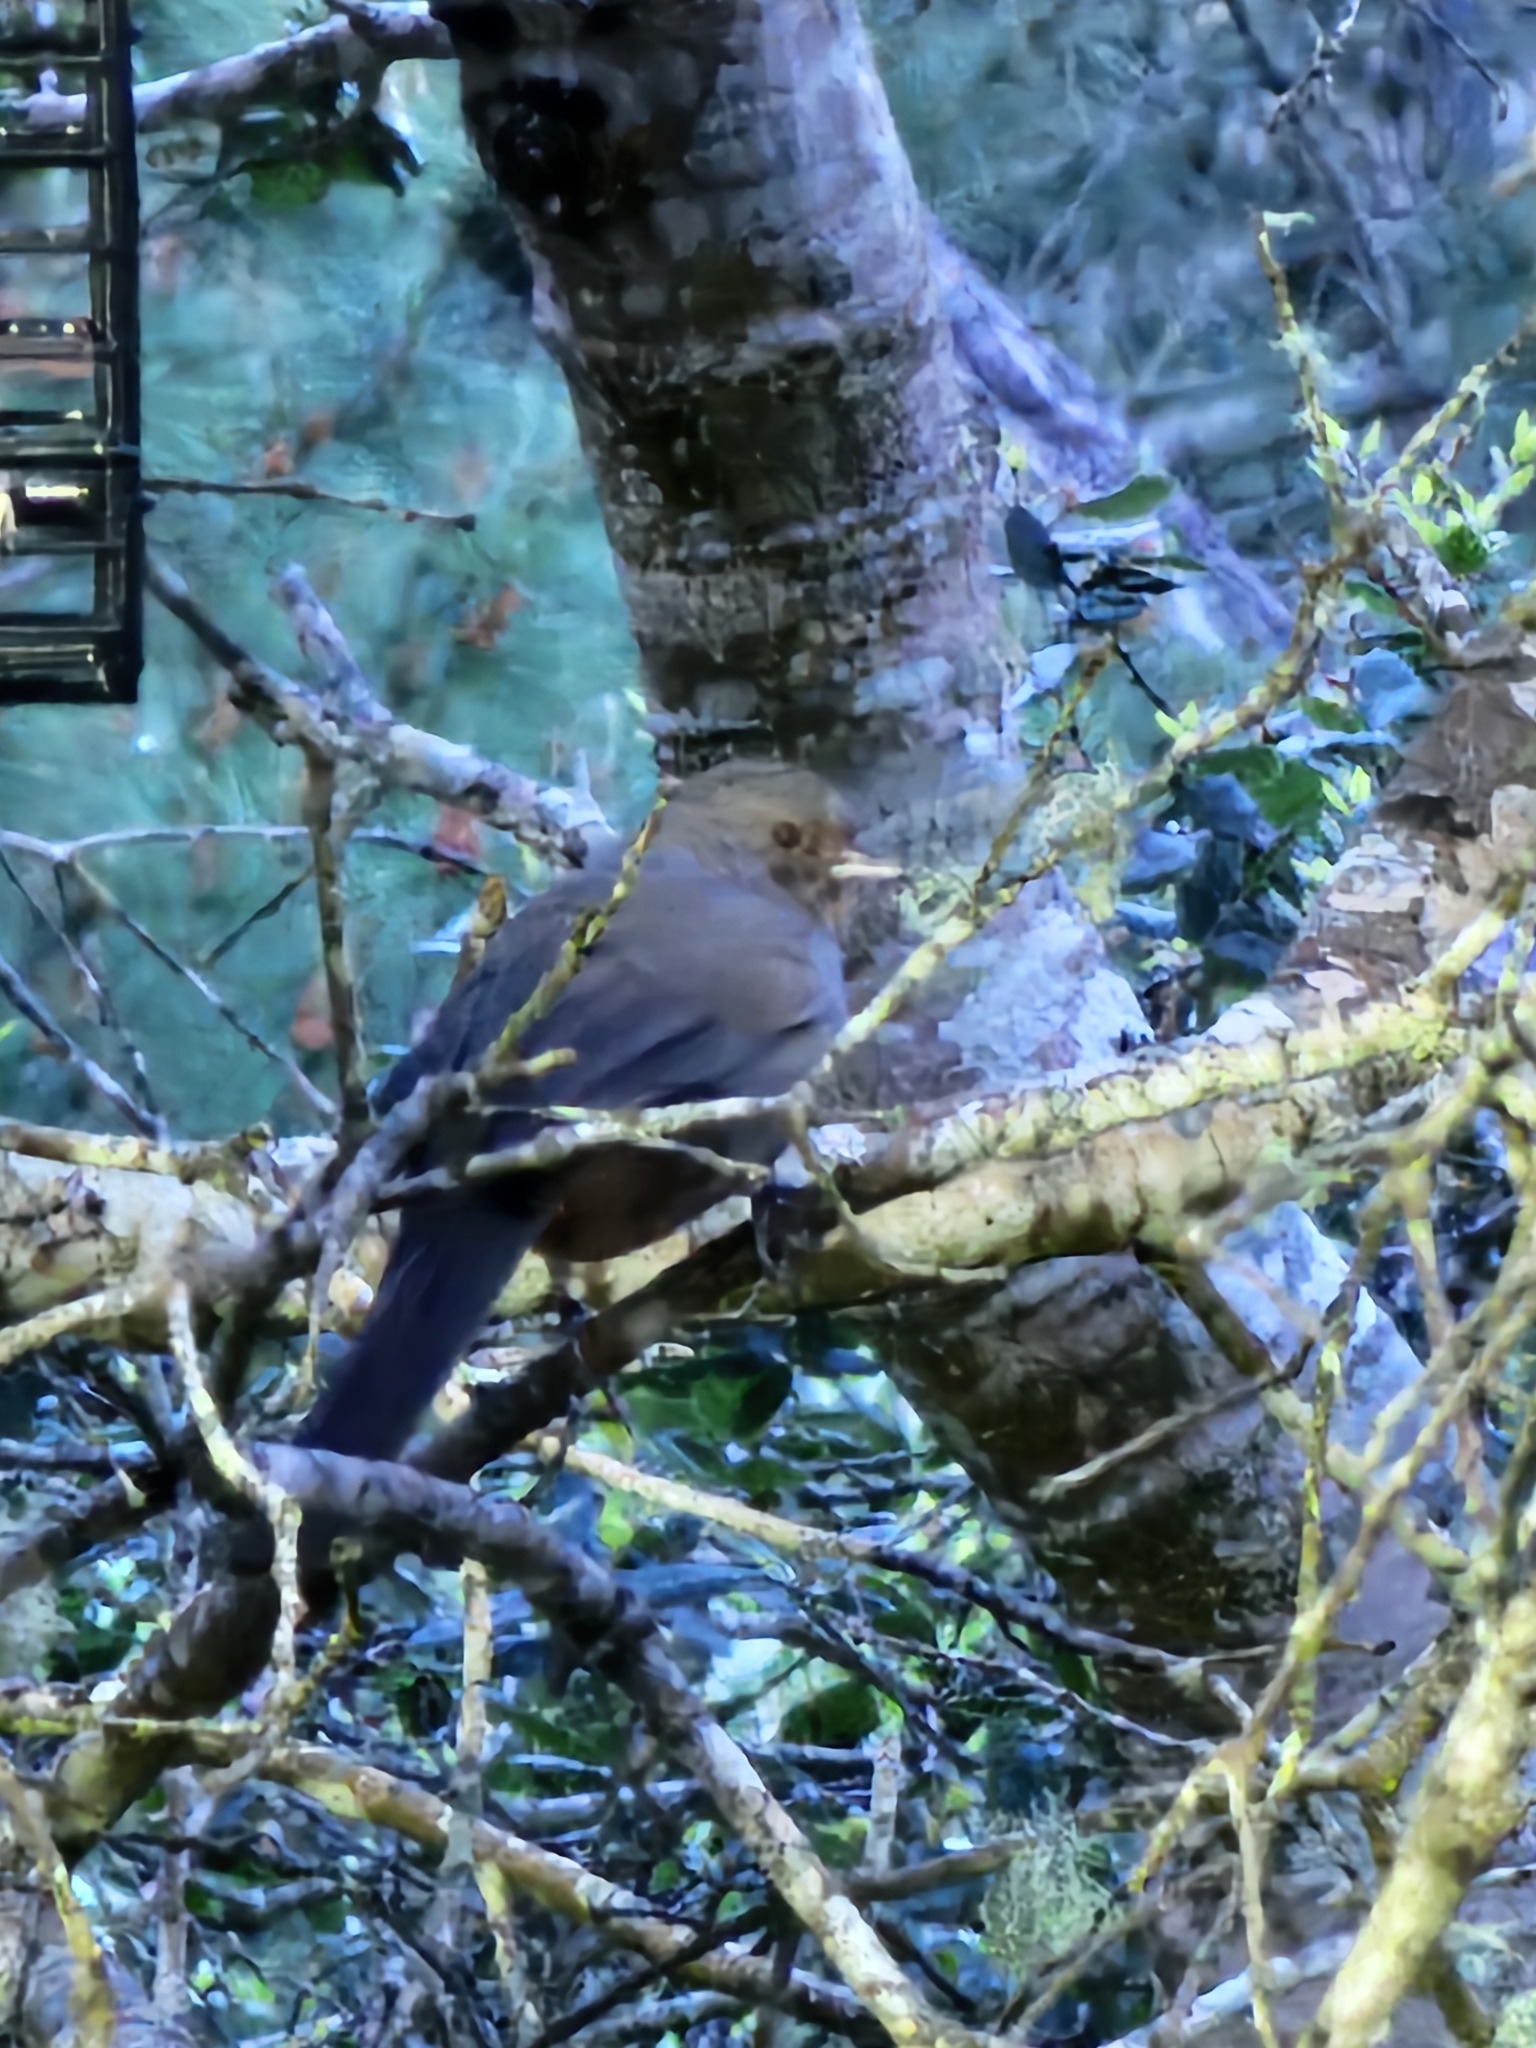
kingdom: Animalia
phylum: Chordata
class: Aves
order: Passeriformes
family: Passerellidae
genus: Melozone
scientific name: Melozone crissalis
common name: California towhee
